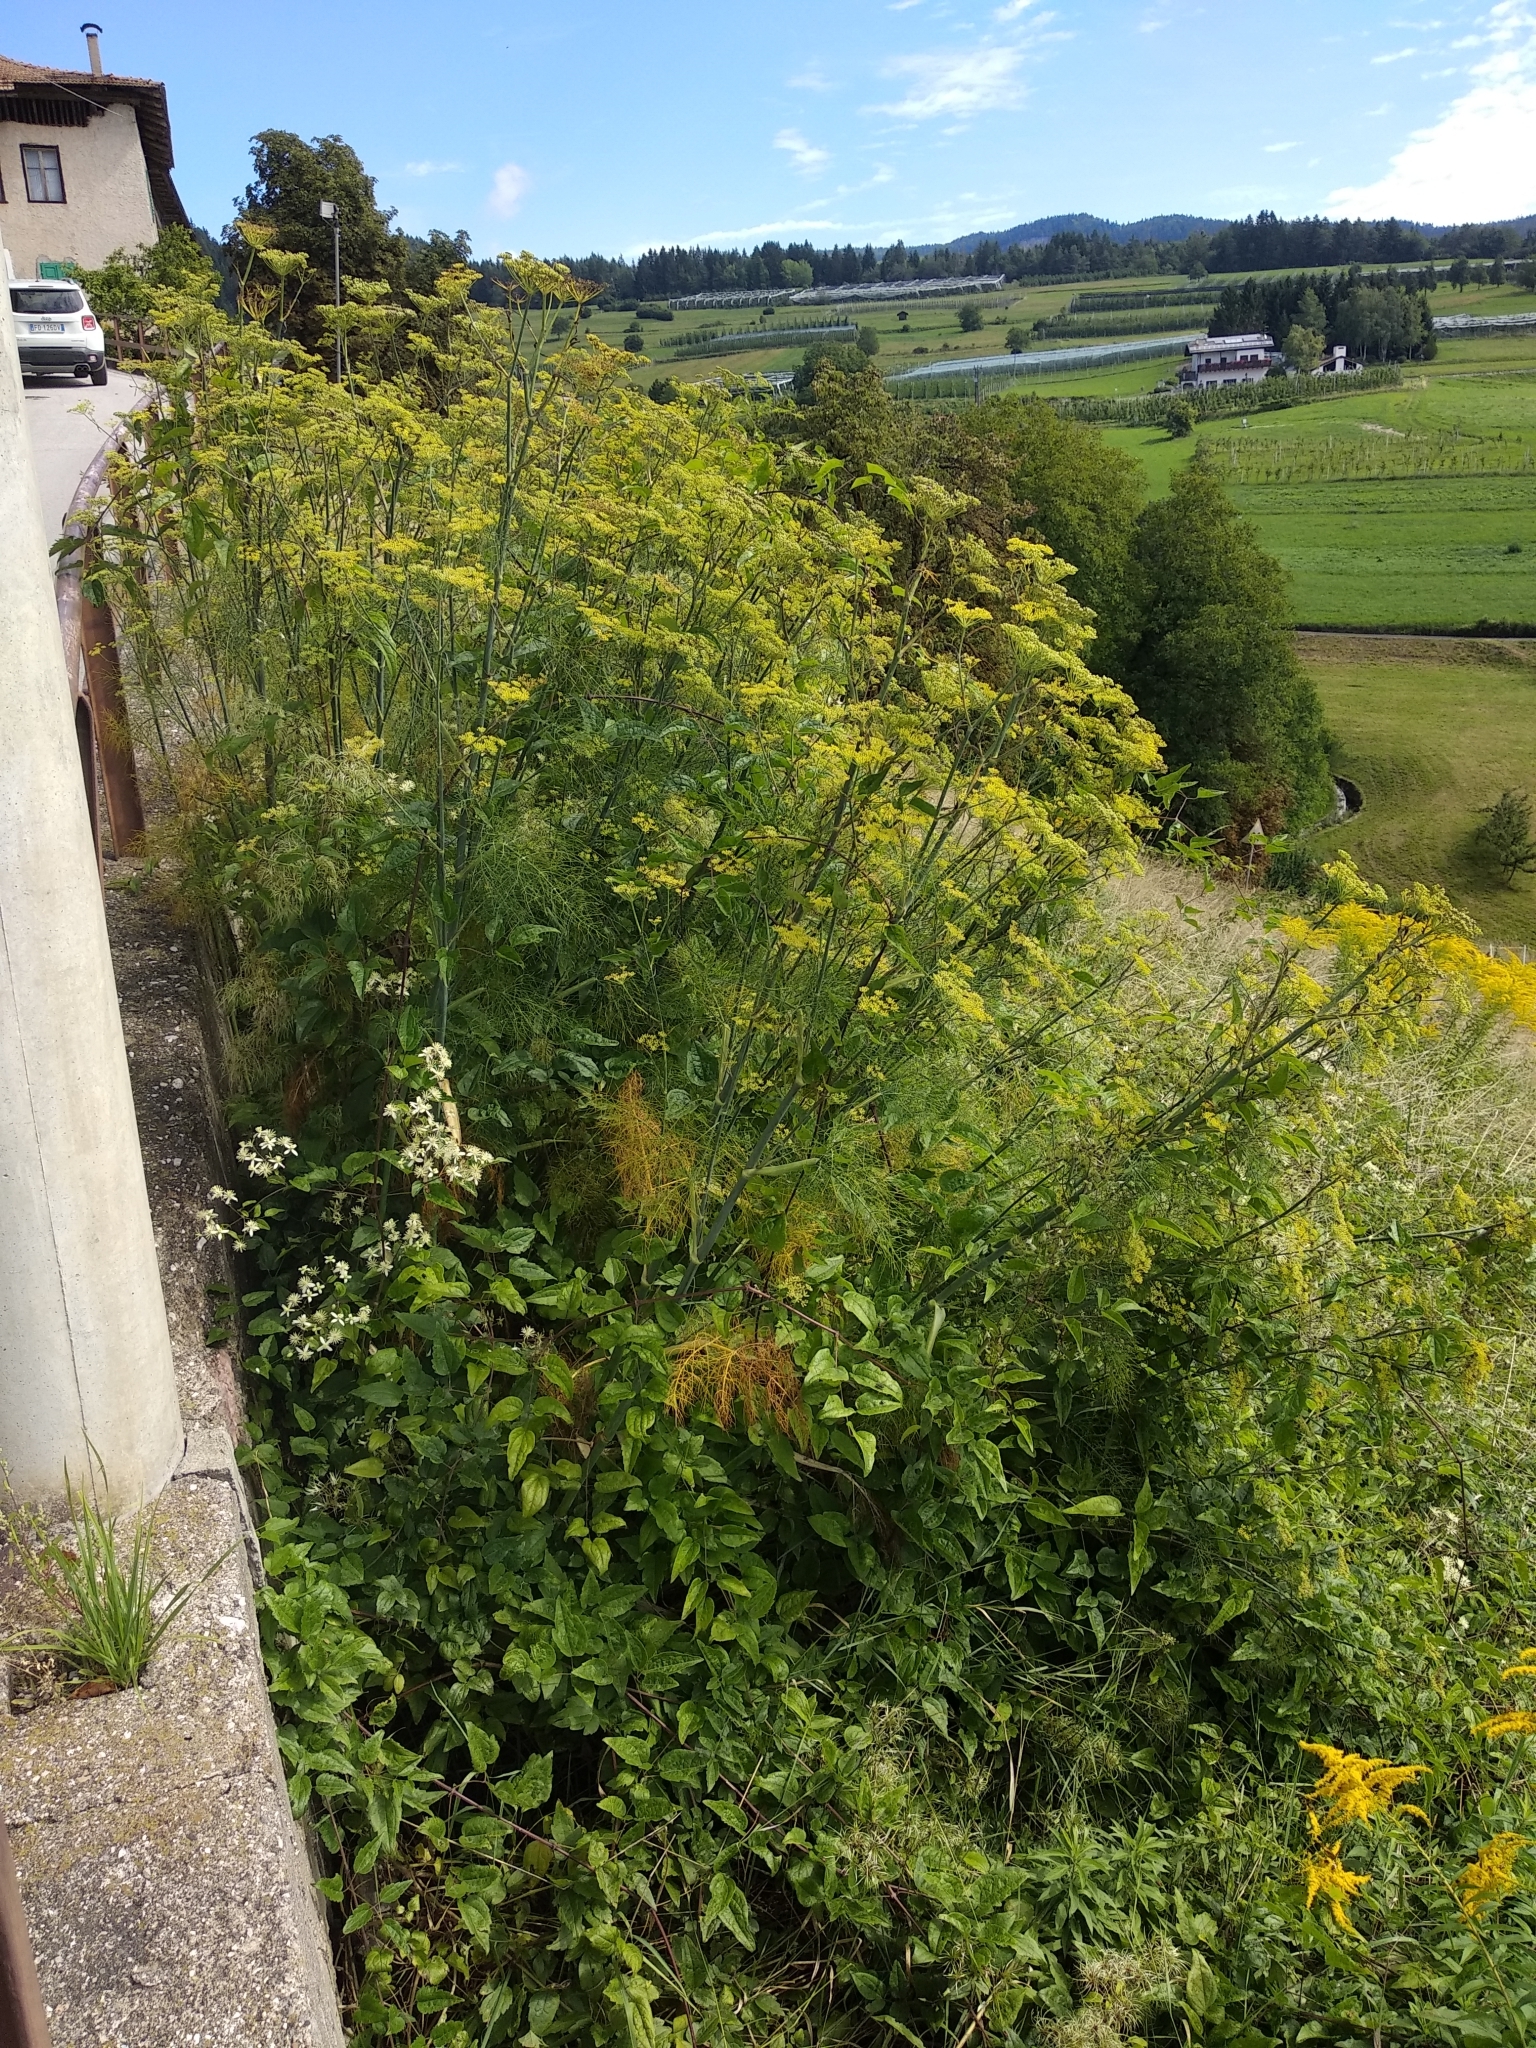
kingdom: Plantae
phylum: Tracheophyta
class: Magnoliopsida
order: Apiales
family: Apiaceae
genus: Foeniculum
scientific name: Foeniculum vulgare
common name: Fennel
